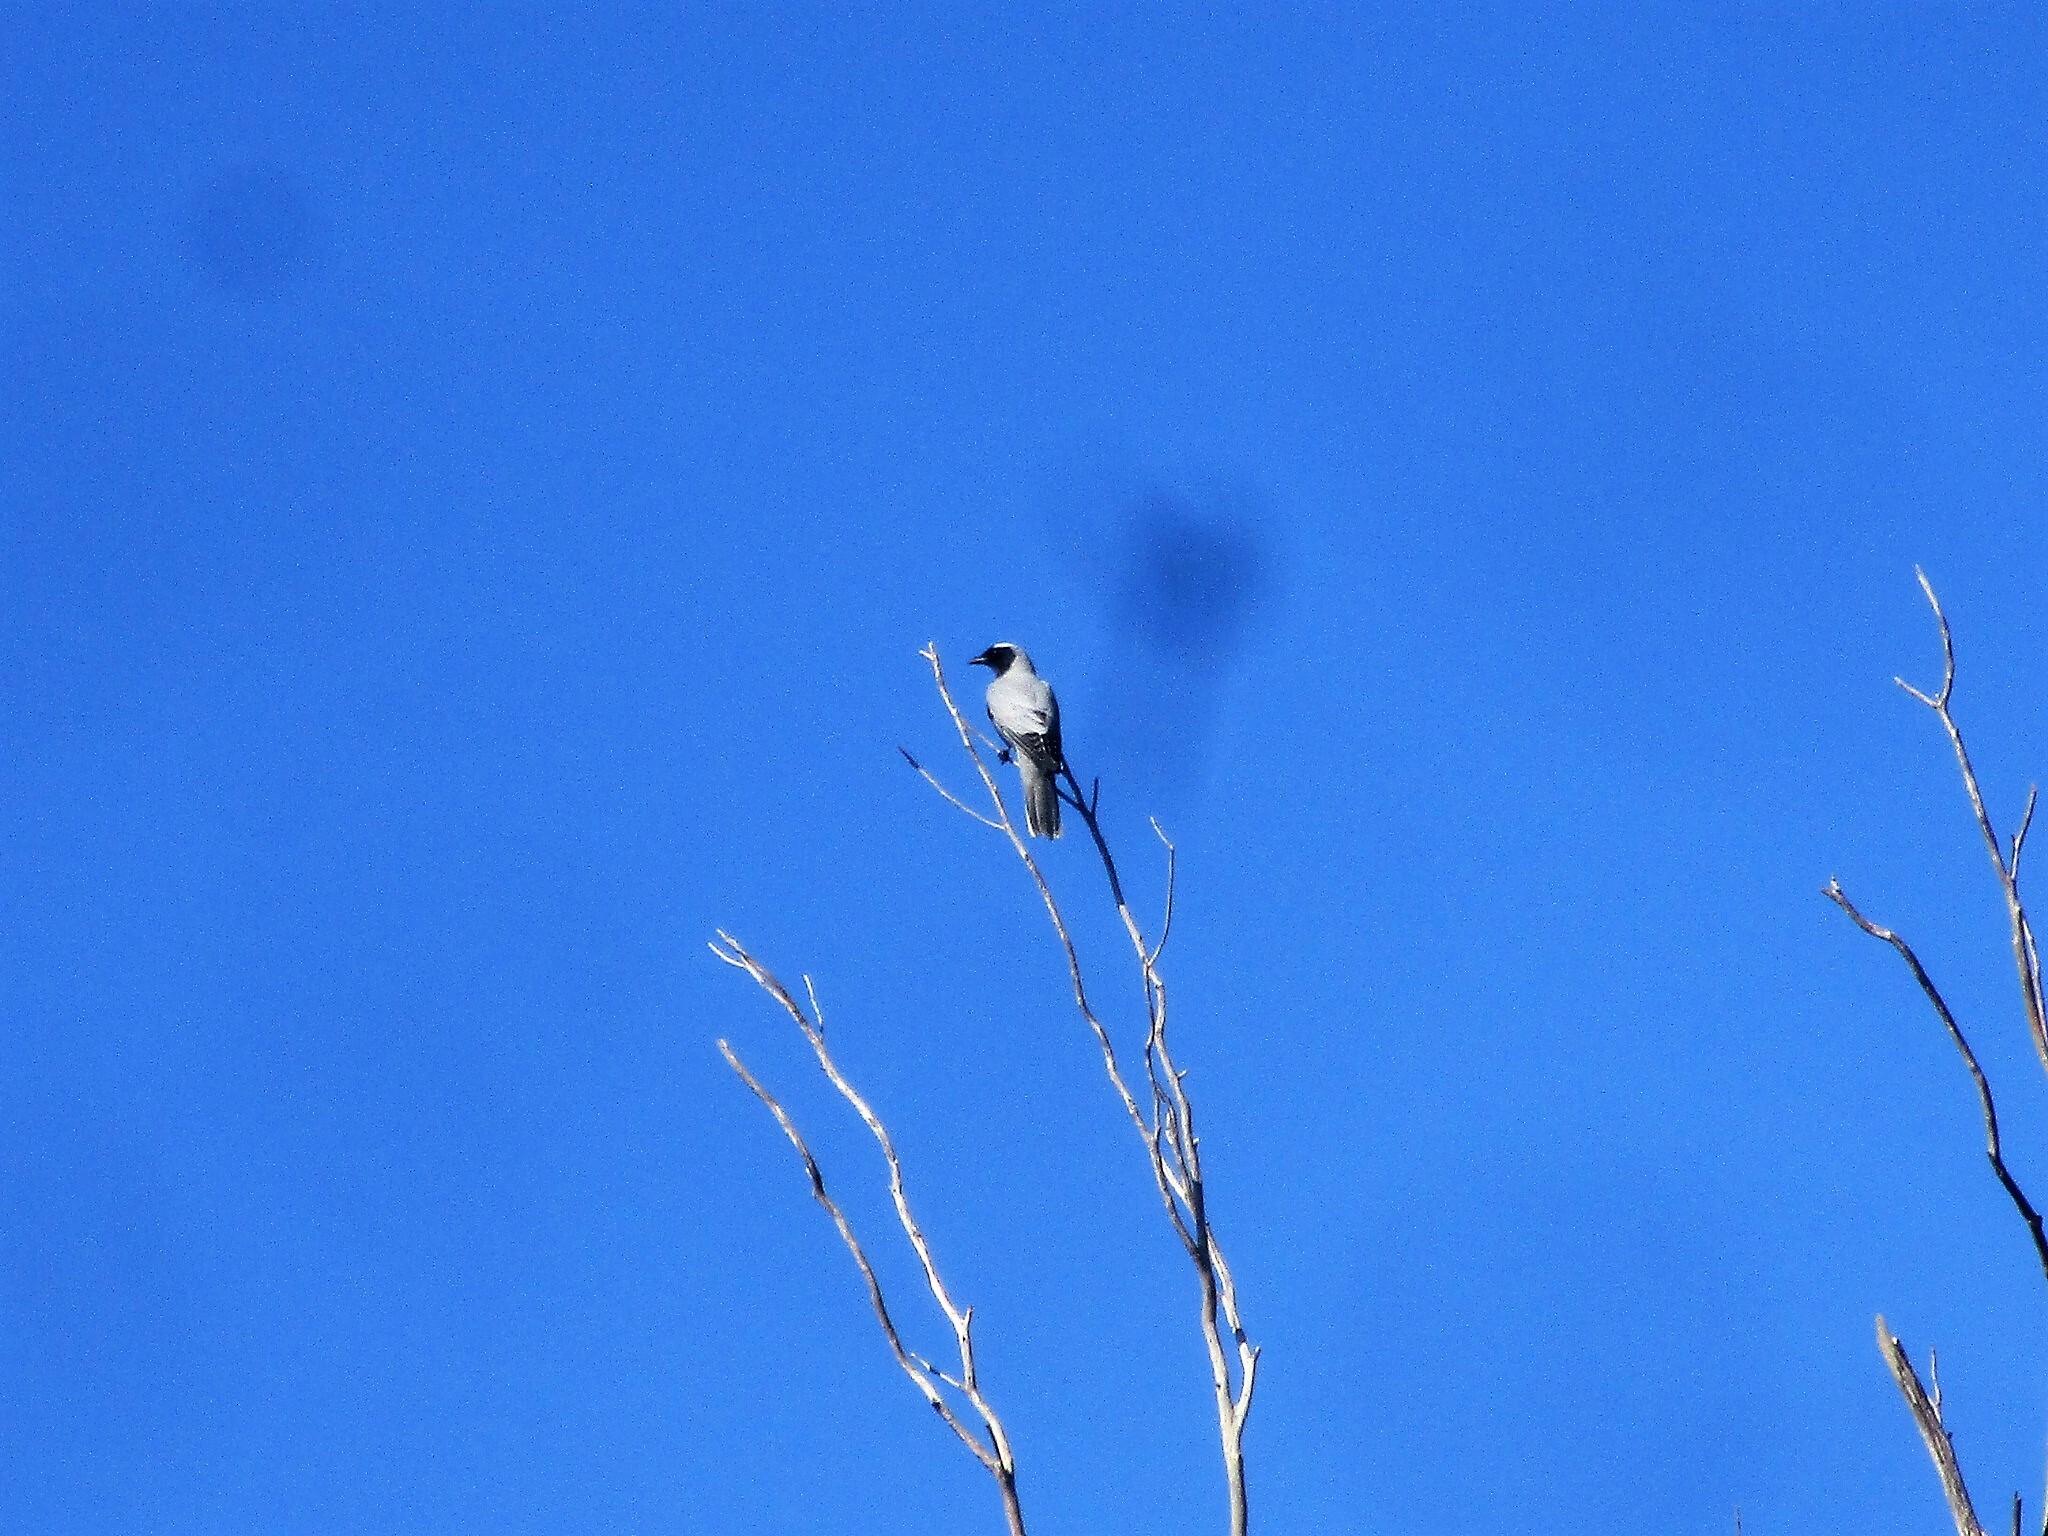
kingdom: Animalia
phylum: Chordata
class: Aves
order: Passeriformes
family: Campephagidae
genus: Coracina
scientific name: Coracina novaehollandiae
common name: Black-faced cuckooshrike
